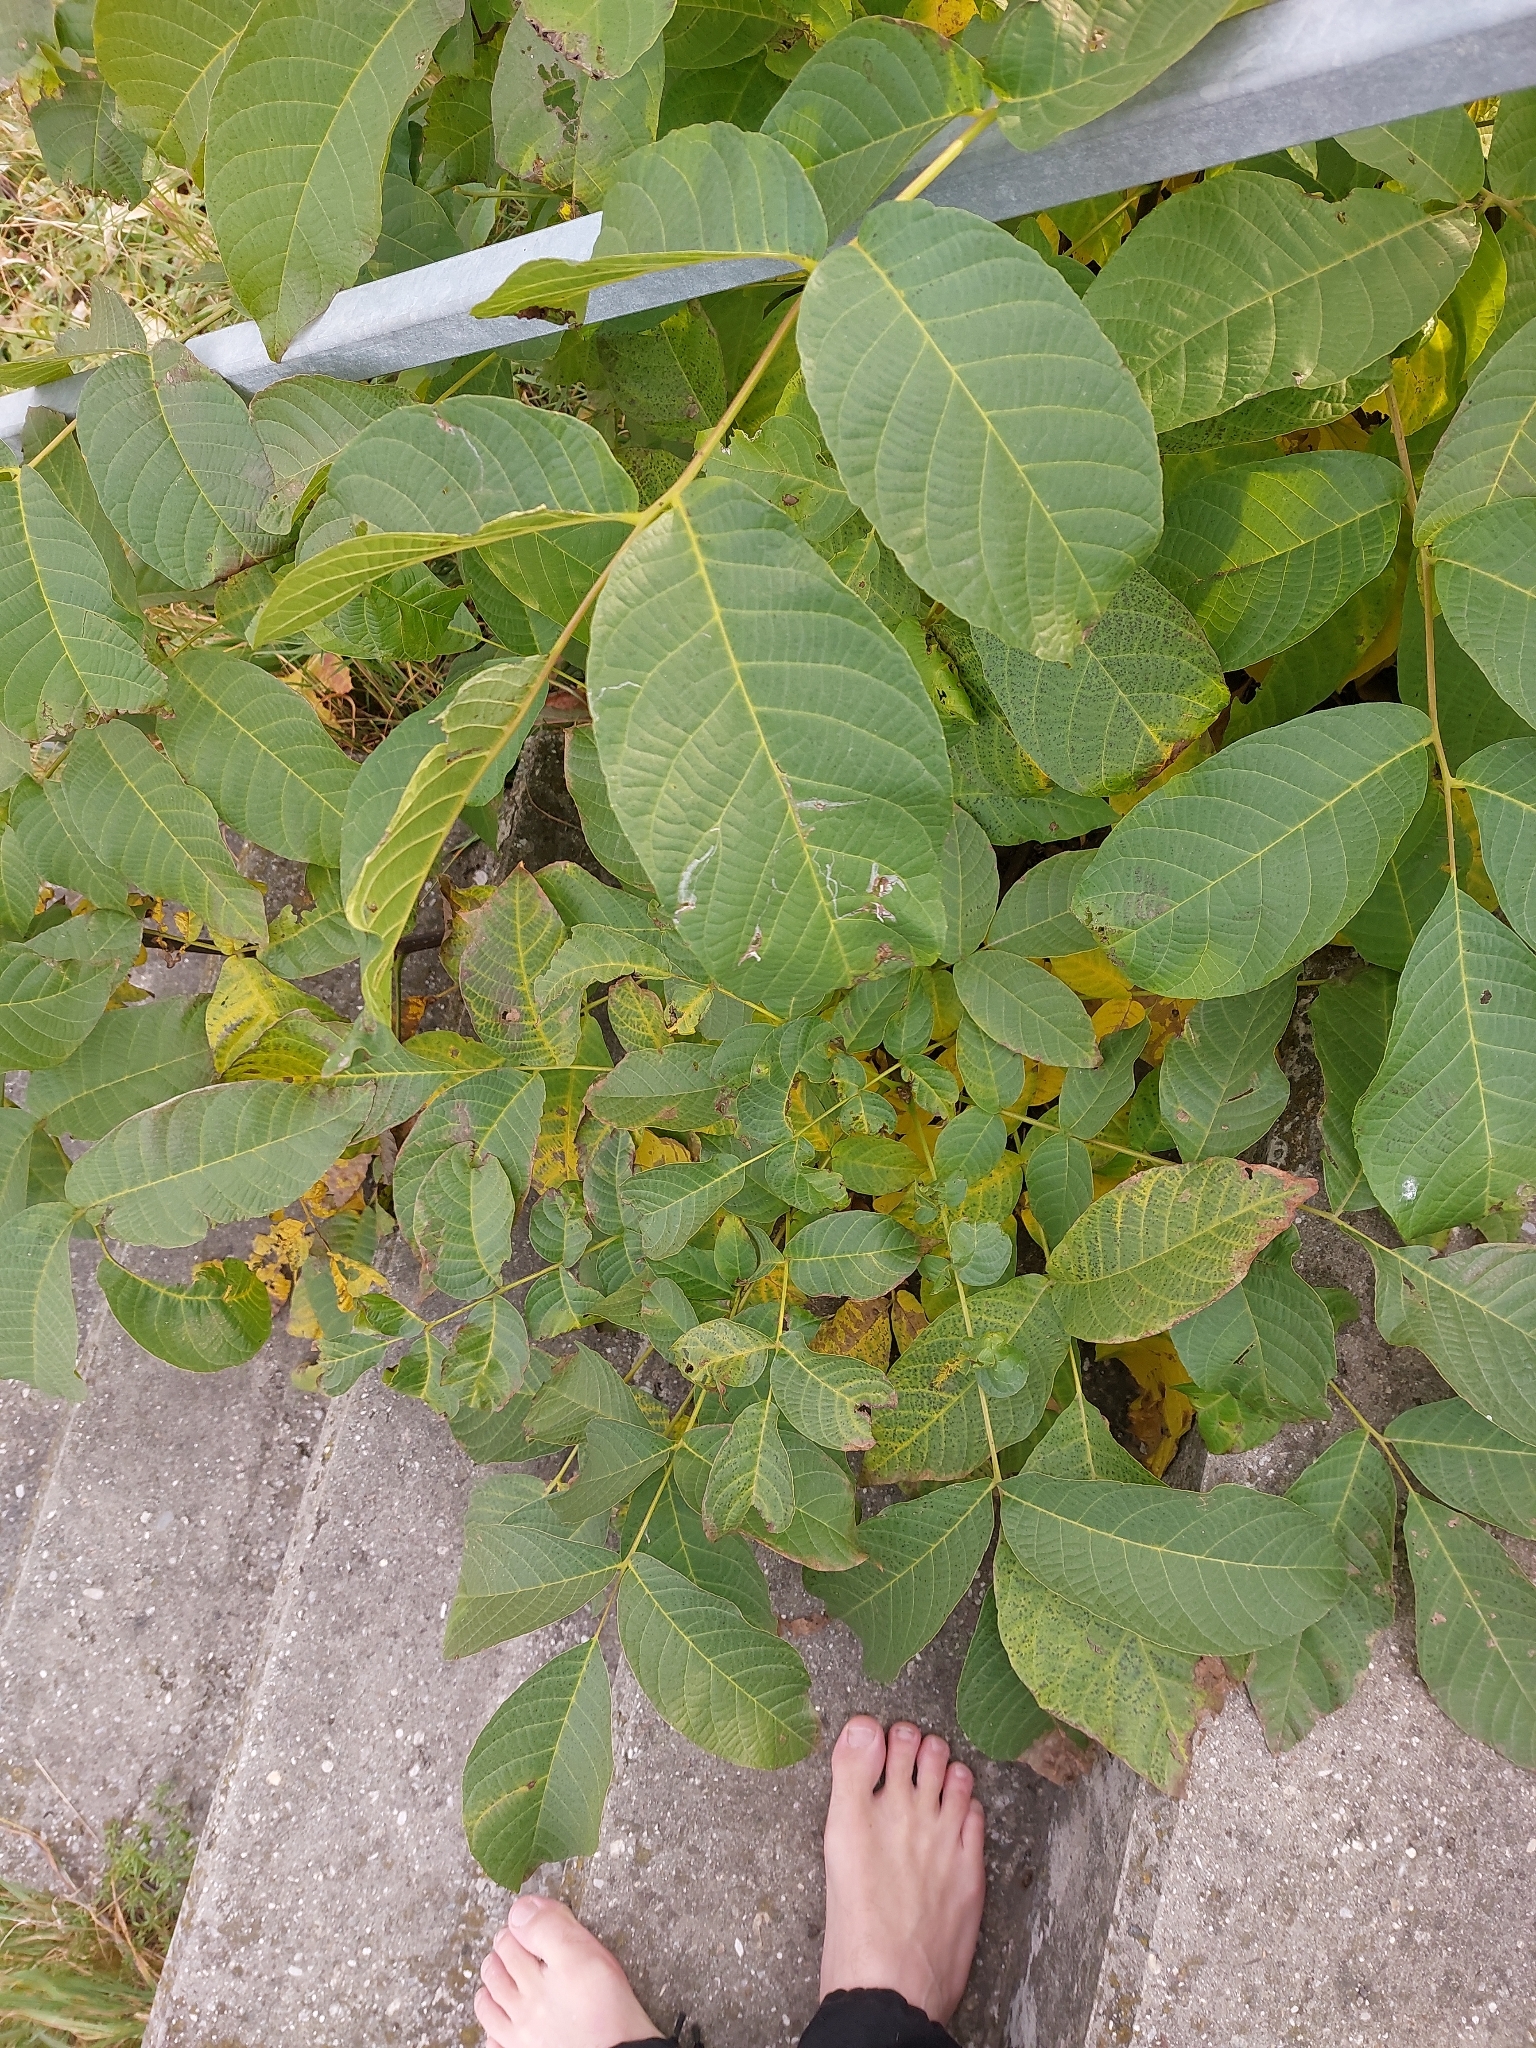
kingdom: Plantae
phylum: Tracheophyta
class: Magnoliopsida
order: Fagales
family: Juglandaceae
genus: Juglans
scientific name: Juglans regia
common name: Walnut
